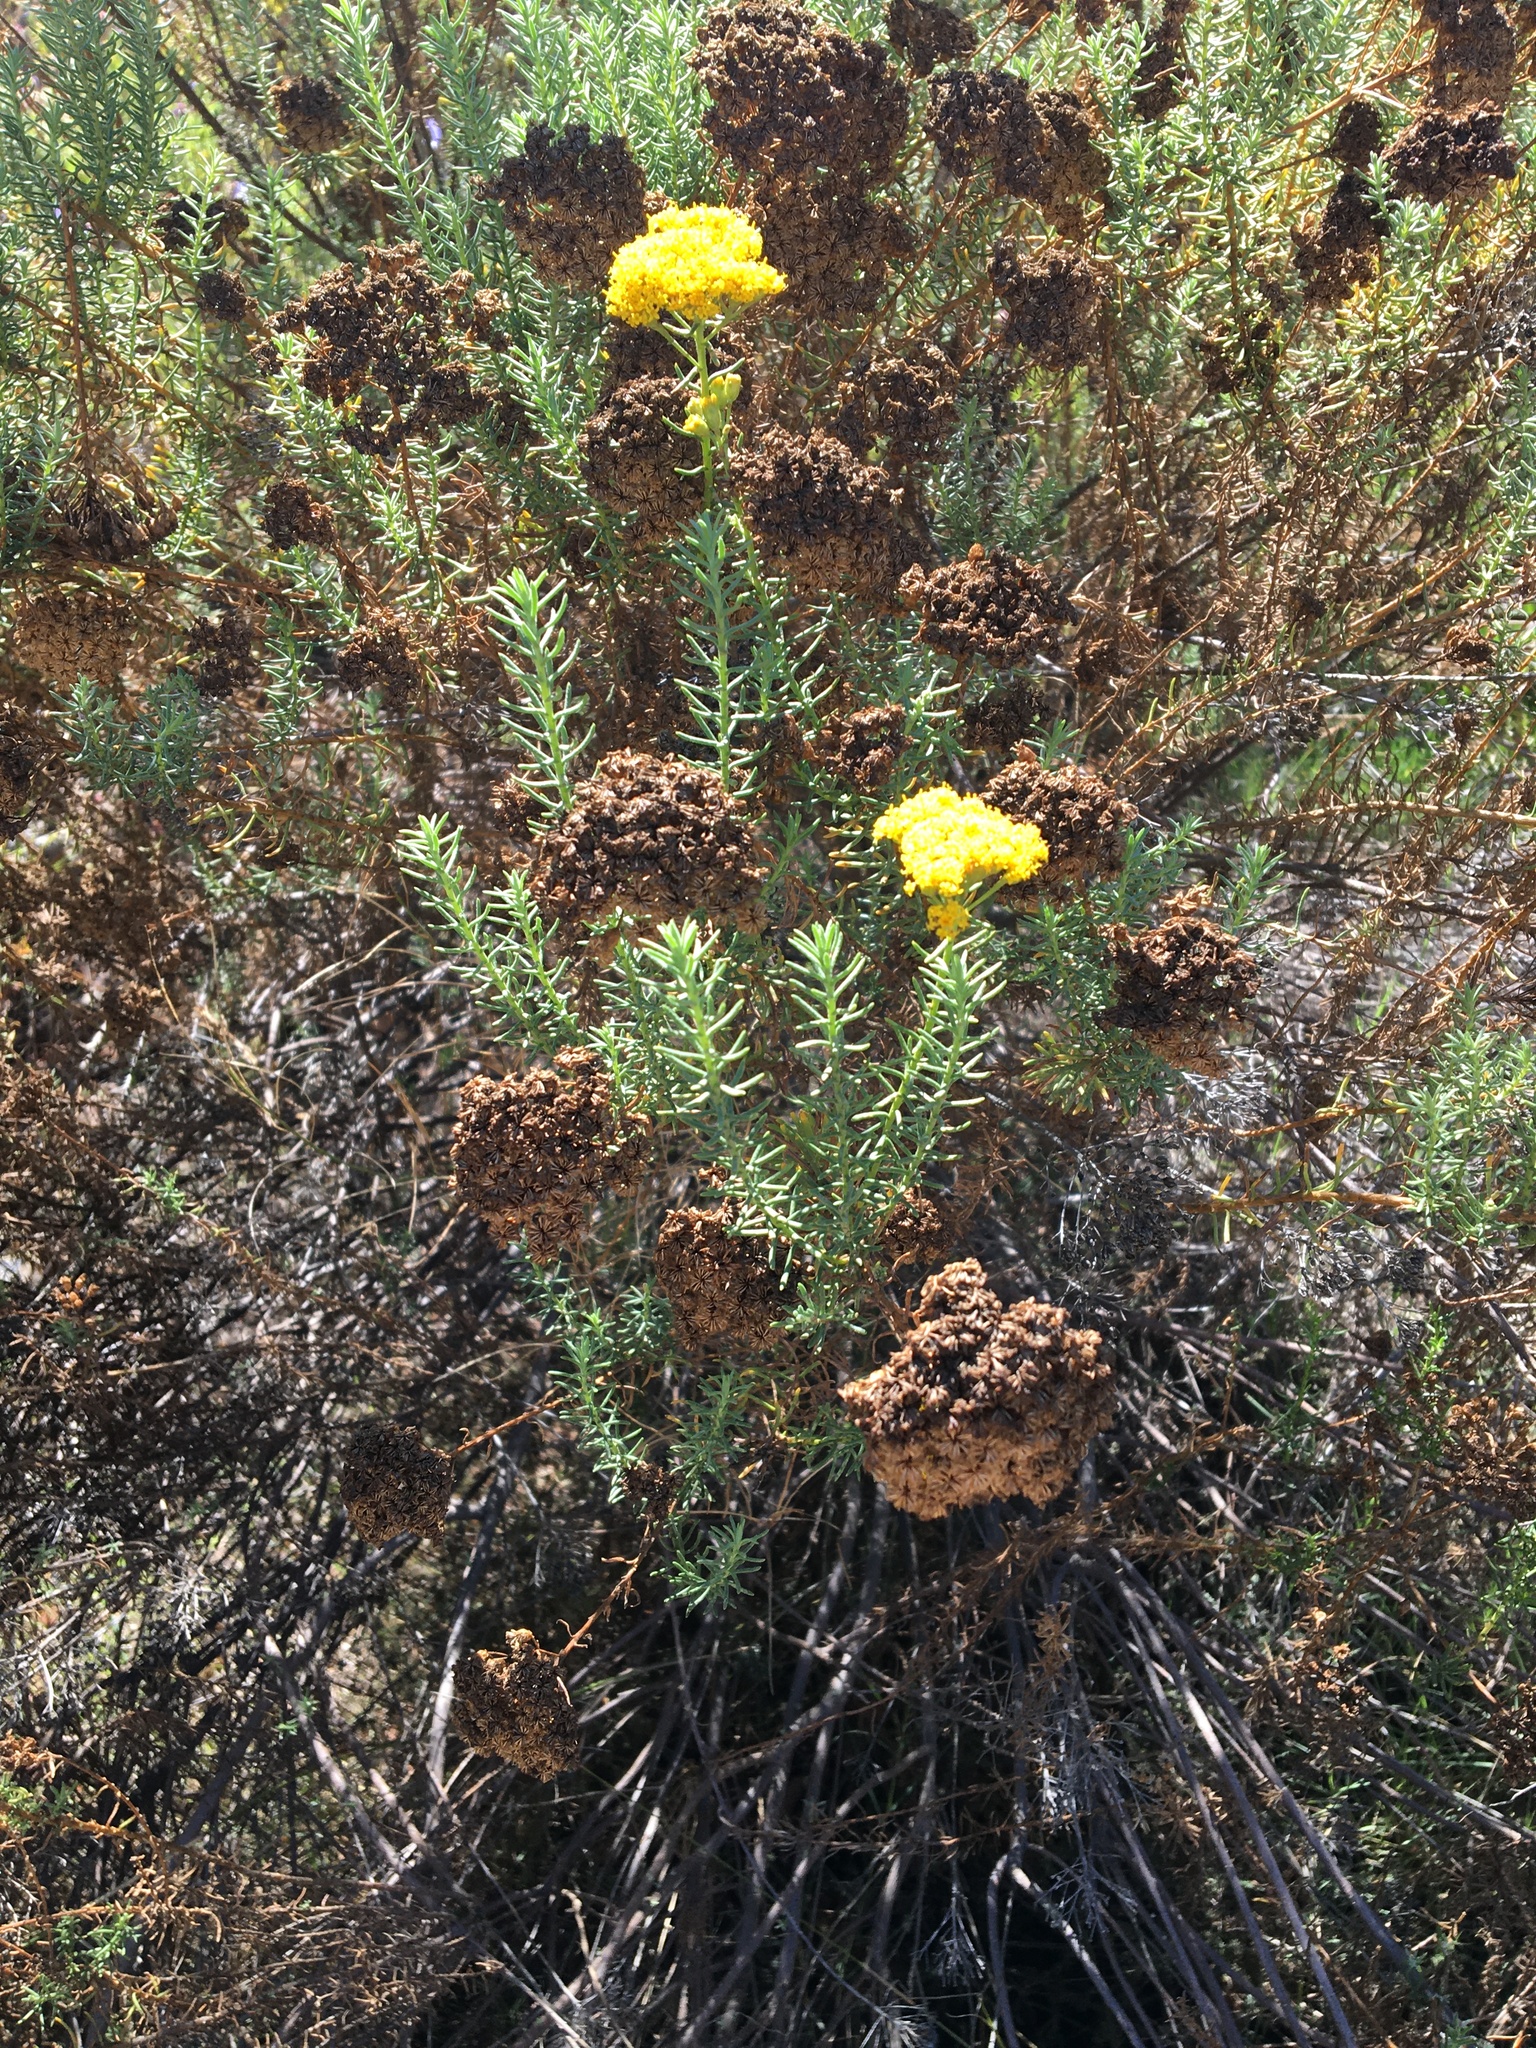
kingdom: Plantae
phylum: Tracheophyta
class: Magnoliopsida
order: Asterales
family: Asteraceae
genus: Athanasia
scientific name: Athanasia flexuosa
